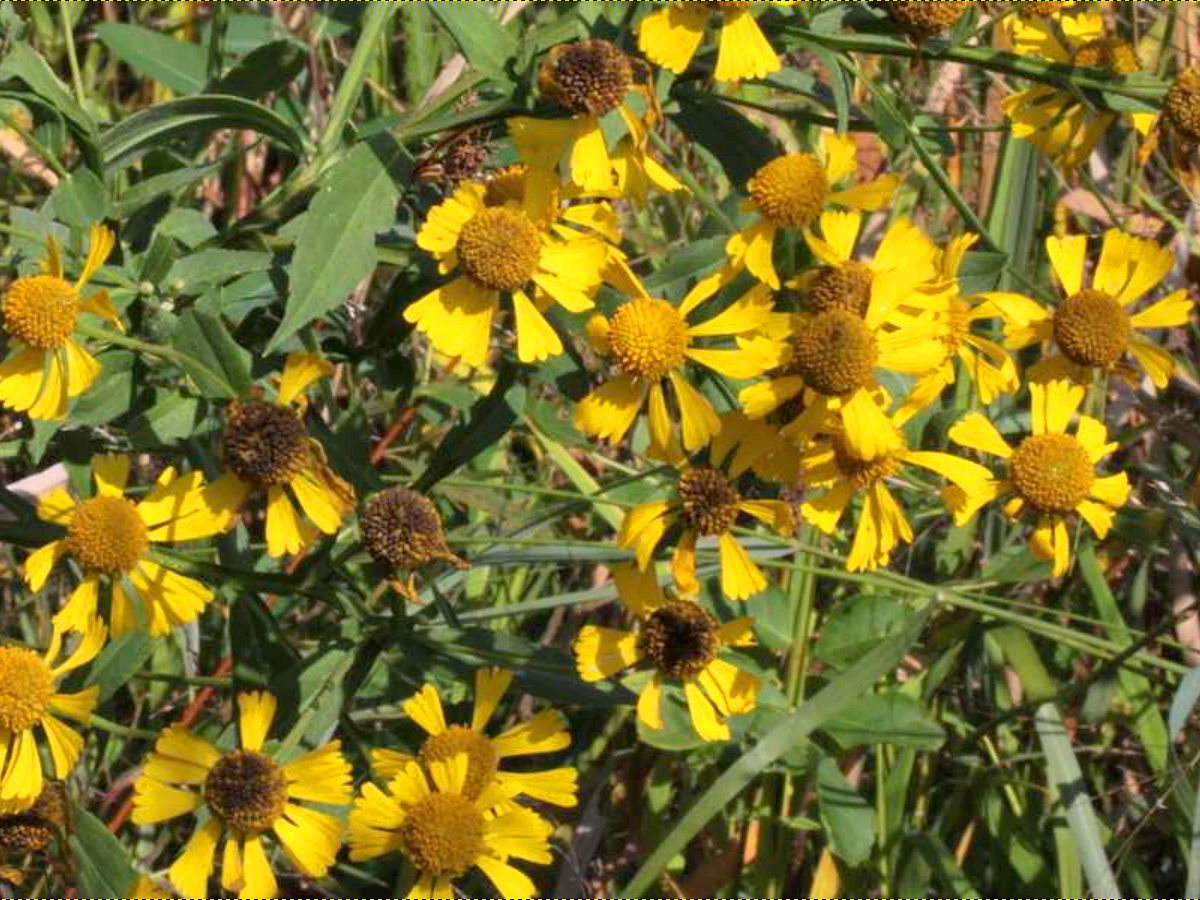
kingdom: Plantae
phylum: Tracheophyta
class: Magnoliopsida
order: Asterales
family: Asteraceae
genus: Helenium
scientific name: Helenium autumnale
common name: Sneezeweed
